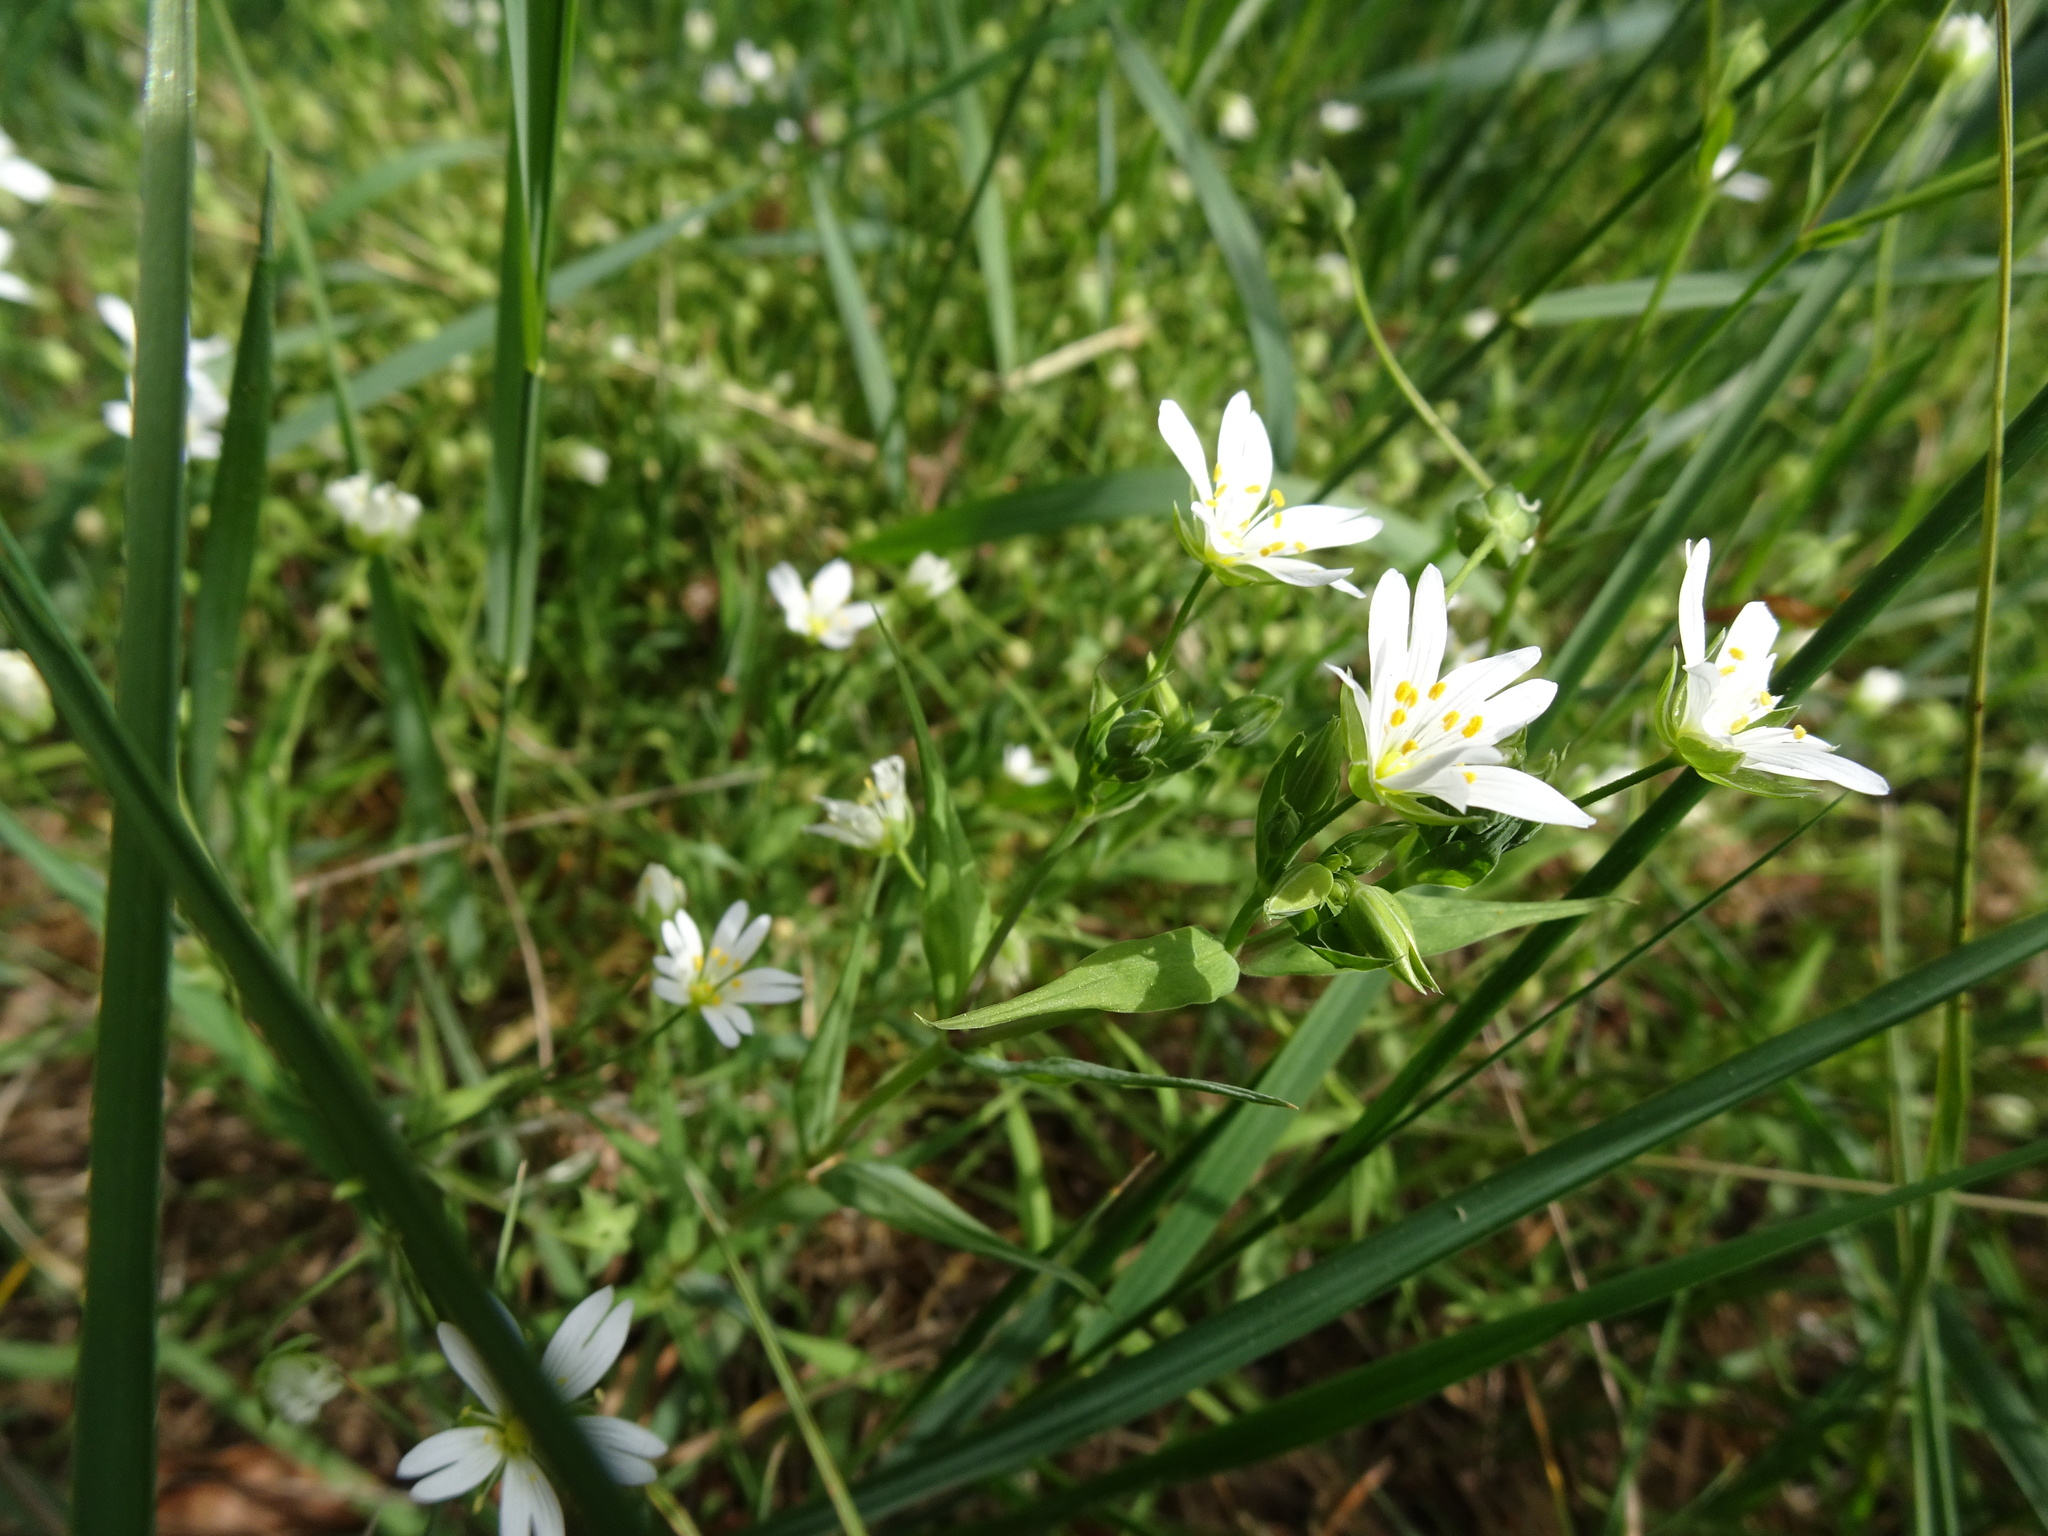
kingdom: Plantae
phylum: Tracheophyta
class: Magnoliopsida
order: Caryophyllales
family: Caryophyllaceae
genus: Rabelera
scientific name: Rabelera holostea
